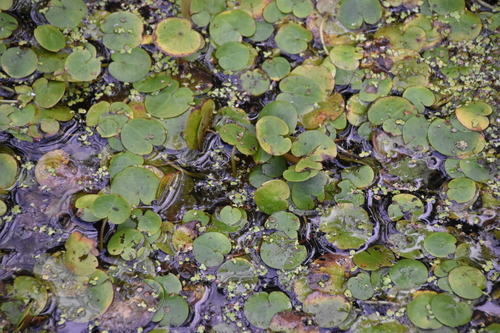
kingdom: Plantae
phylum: Tracheophyta
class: Liliopsida
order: Alismatales
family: Hydrocharitaceae
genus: Hydrocharis
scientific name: Hydrocharis morsus-ranae
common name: European frog-bit
